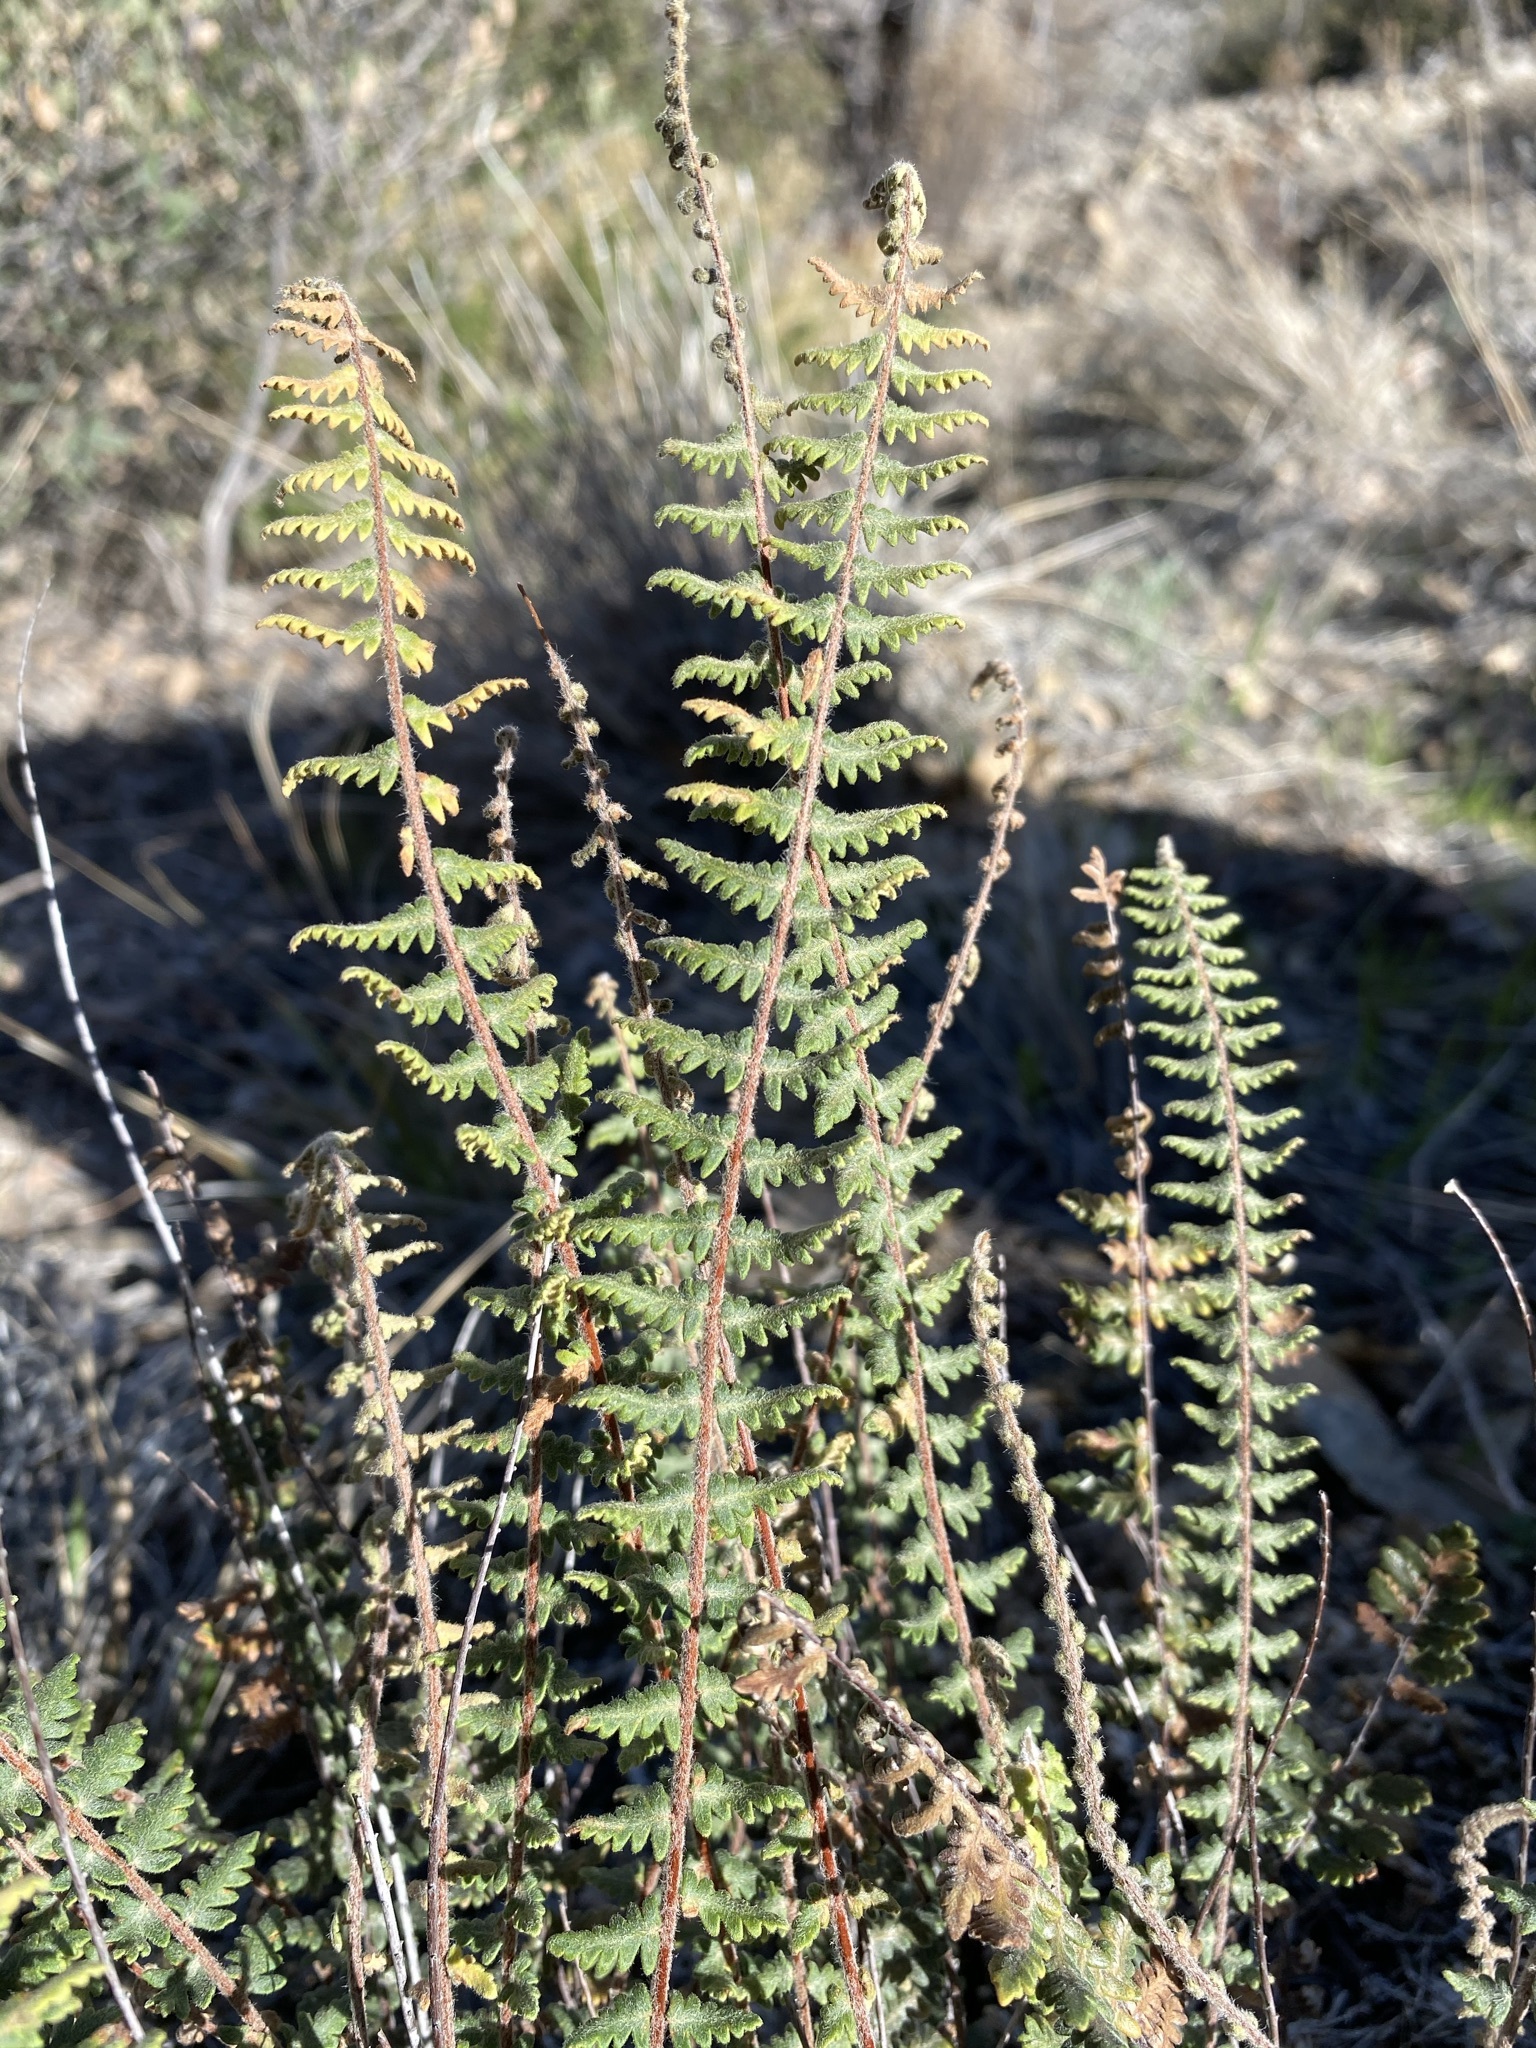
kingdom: Plantae
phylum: Tracheophyta
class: Polypodiopsida
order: Polypodiales
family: Pteridaceae
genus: Myriopteris
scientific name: Myriopteris aurea
